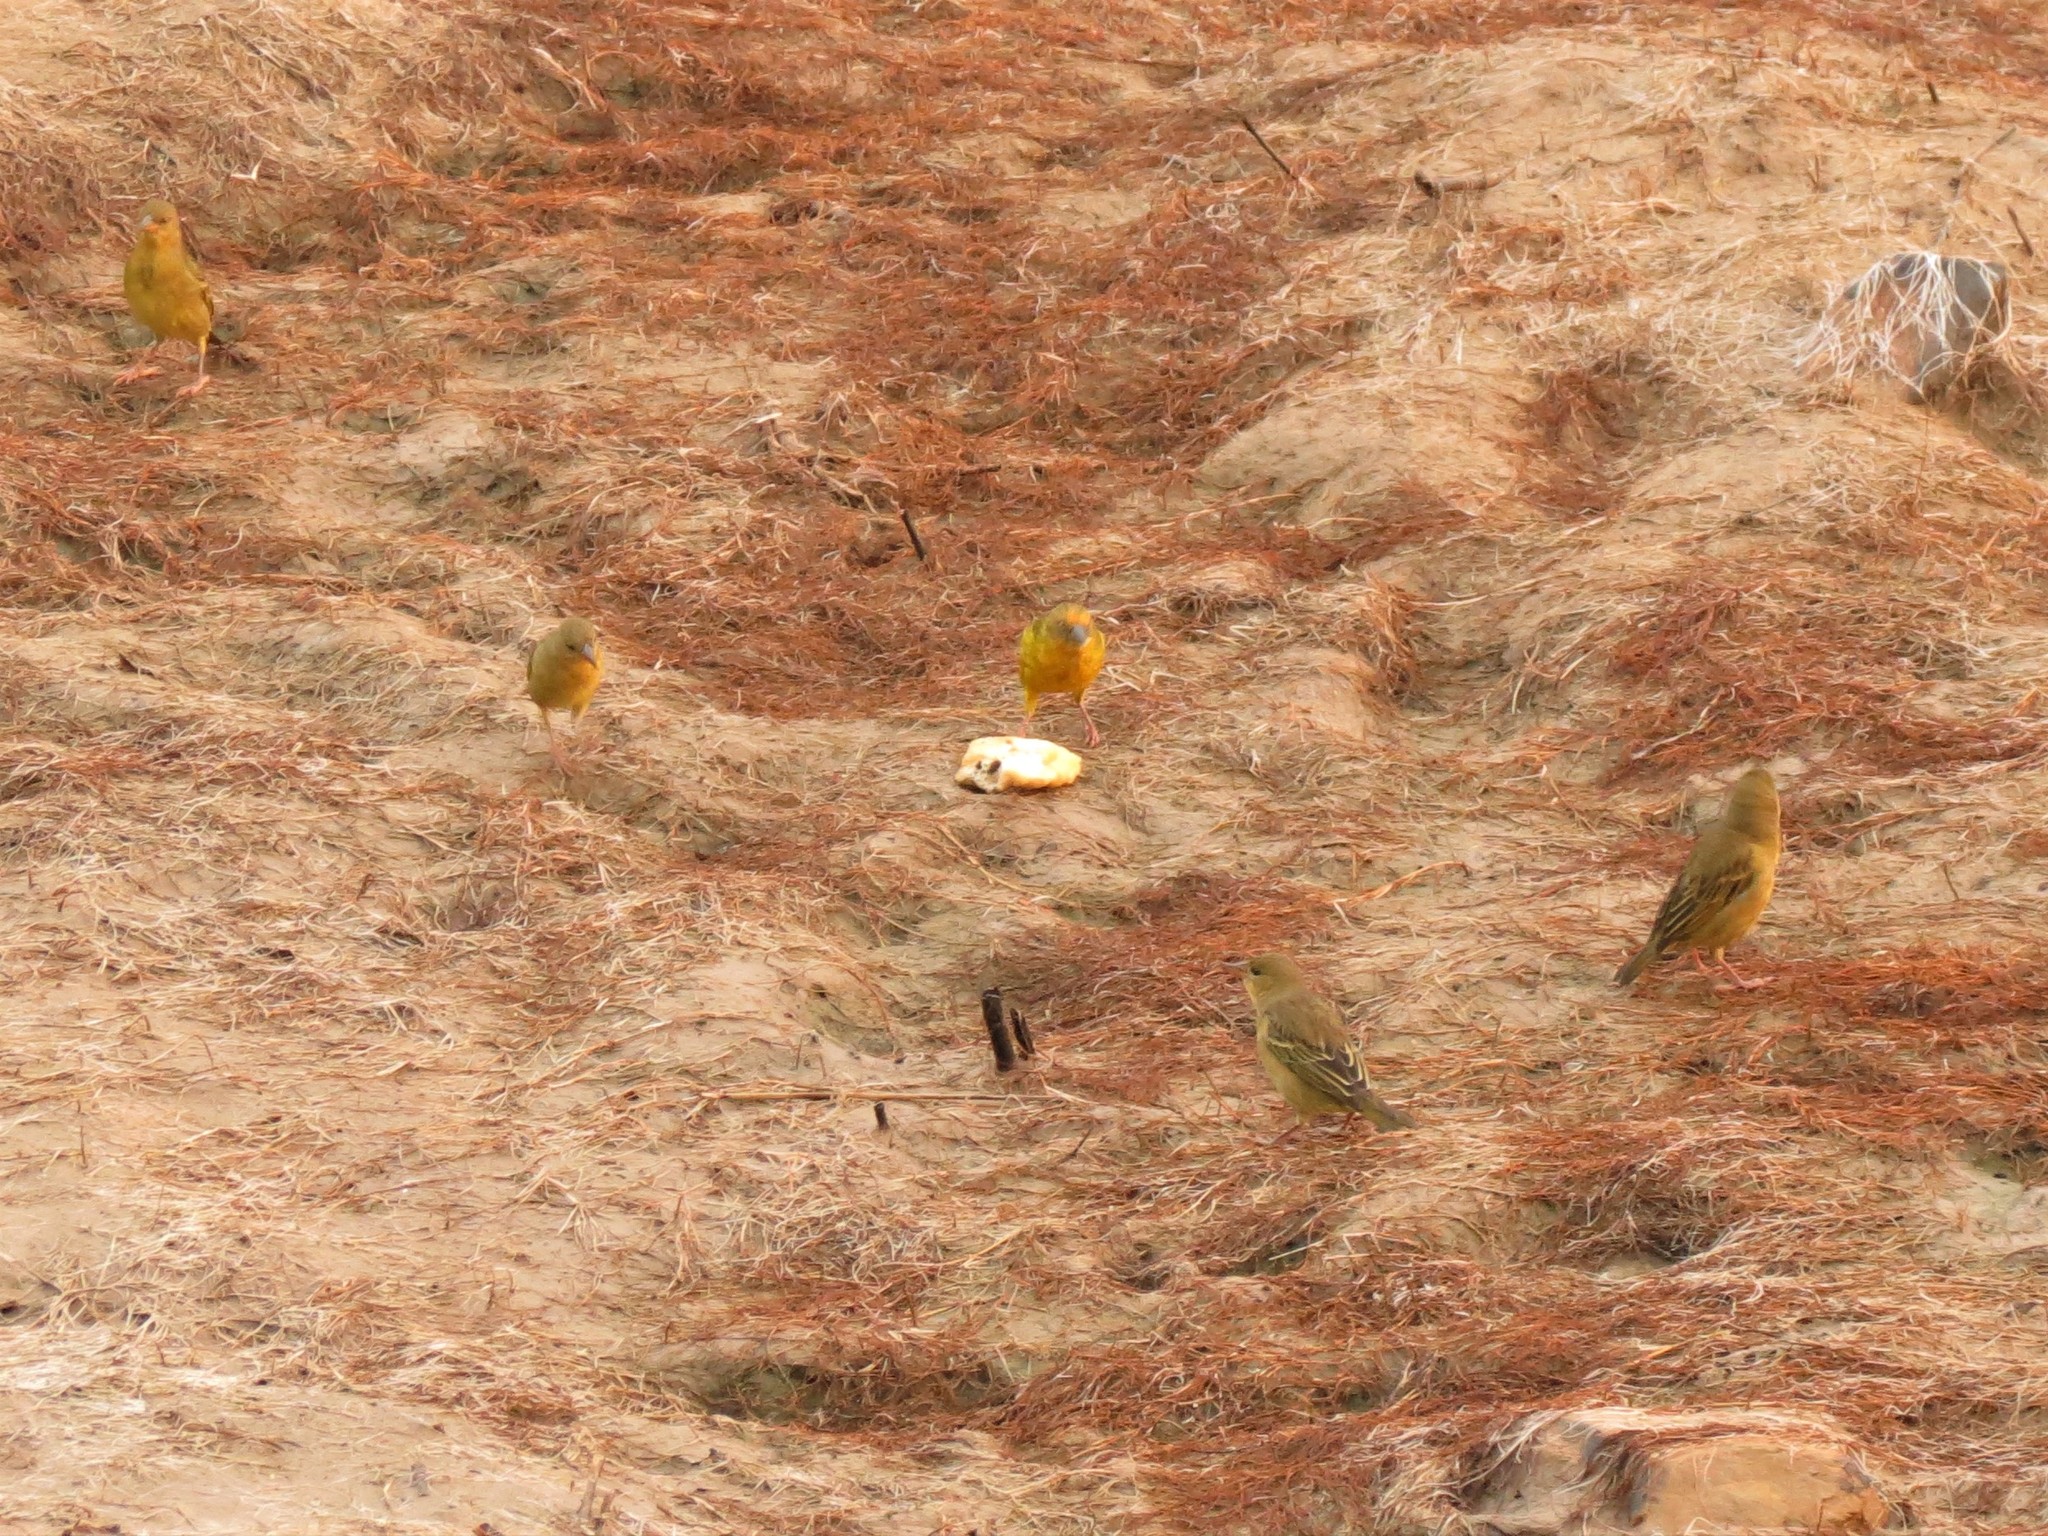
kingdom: Animalia
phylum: Chordata
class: Aves
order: Passeriformes
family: Ploceidae
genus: Ploceus
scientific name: Ploceus capensis
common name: Cape weaver
